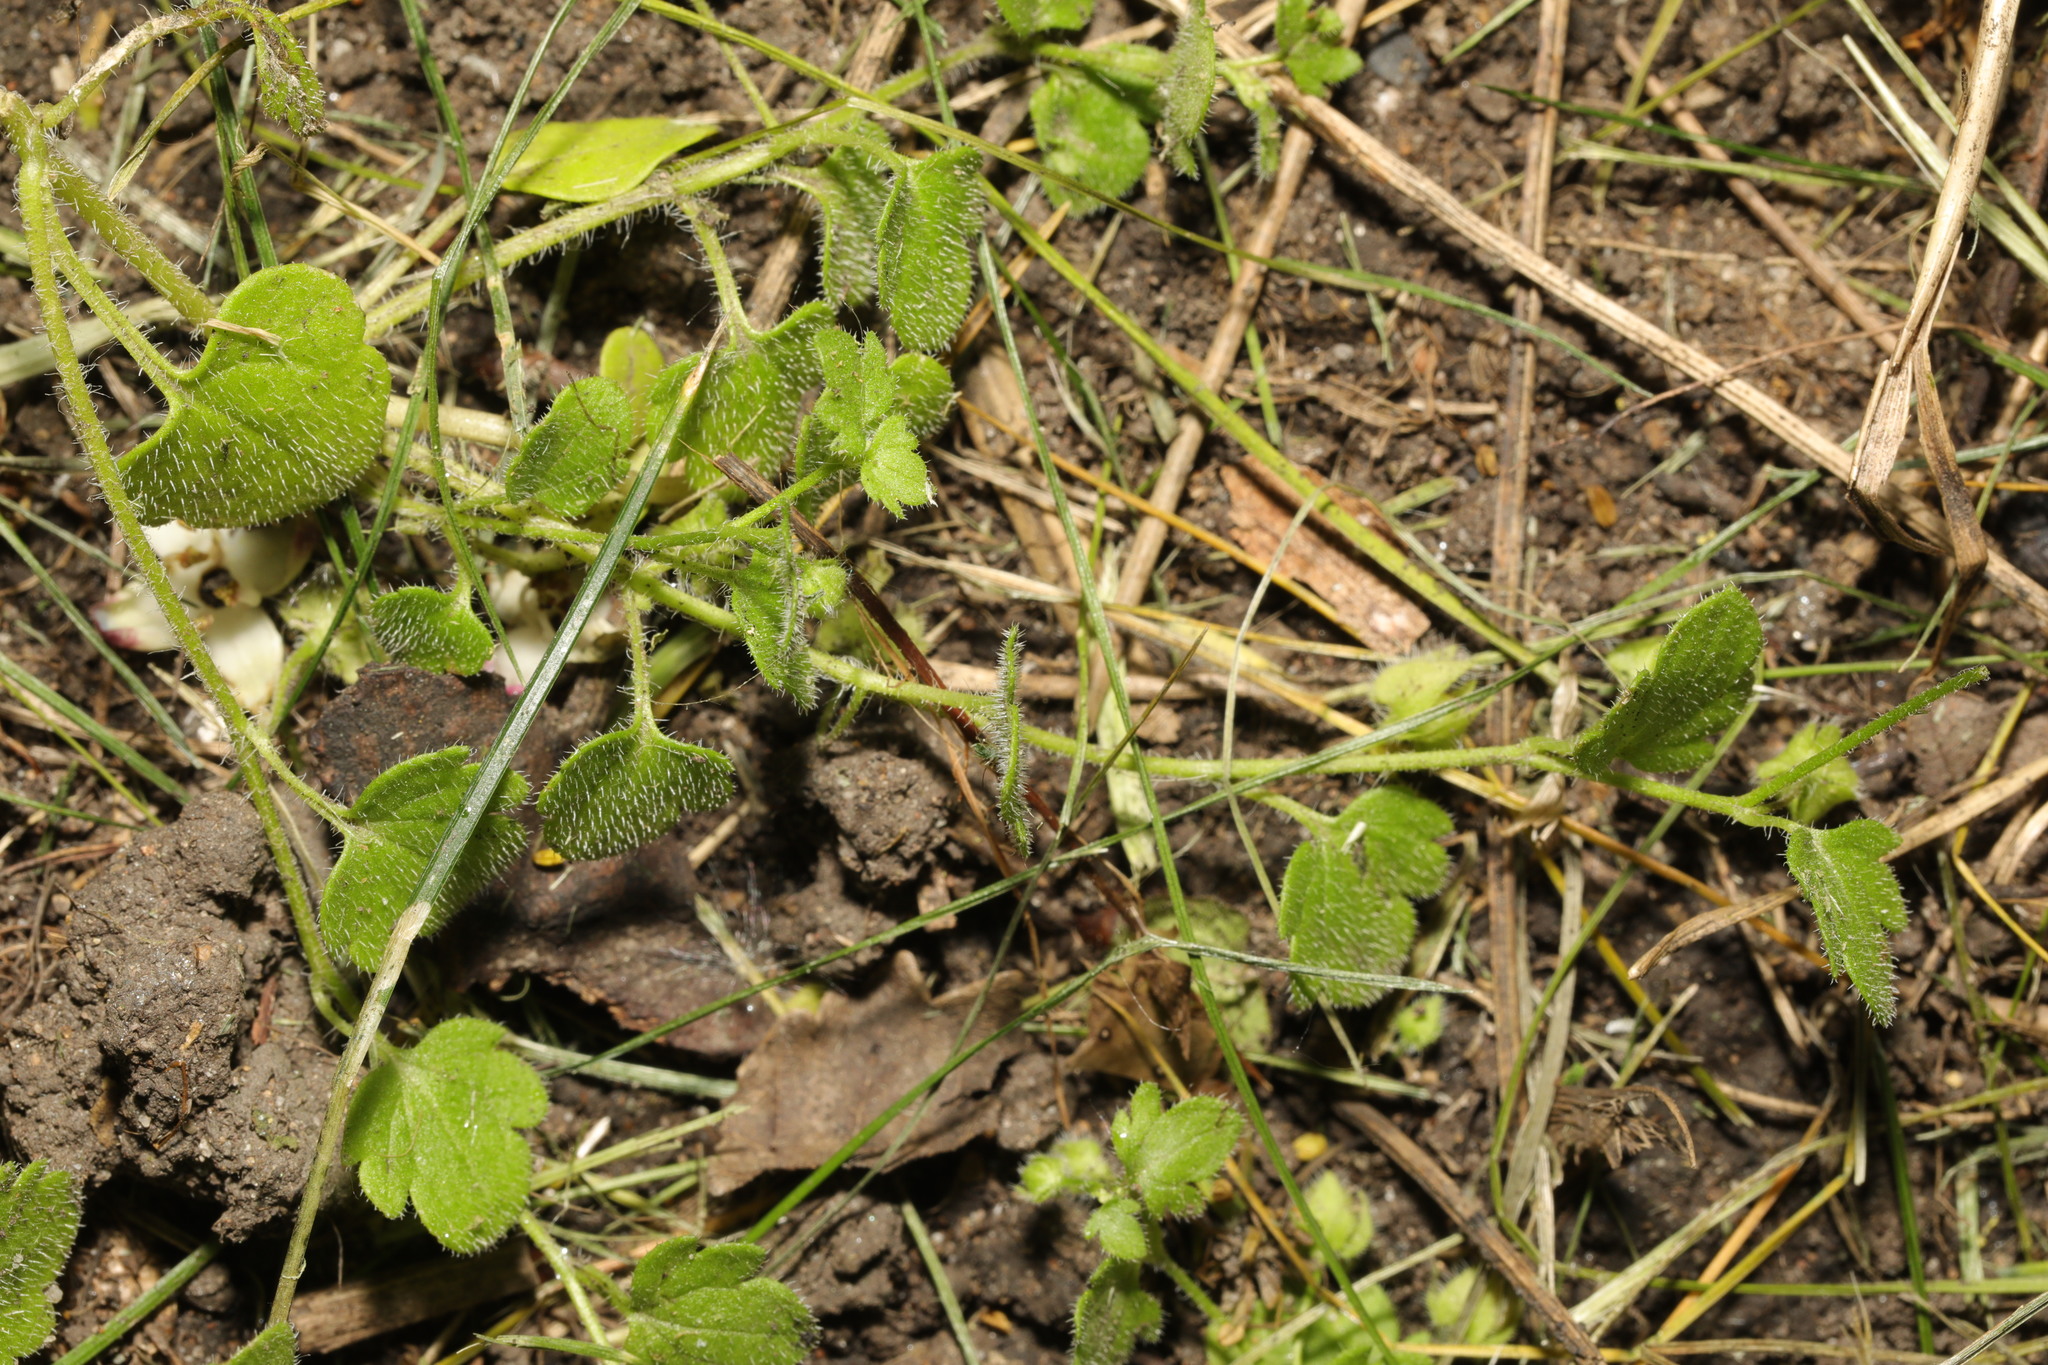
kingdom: Plantae
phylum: Tracheophyta
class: Magnoliopsida
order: Lamiales
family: Plantaginaceae
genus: Veronica
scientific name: Veronica hederifolia
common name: Ivy-leaved speedwell
